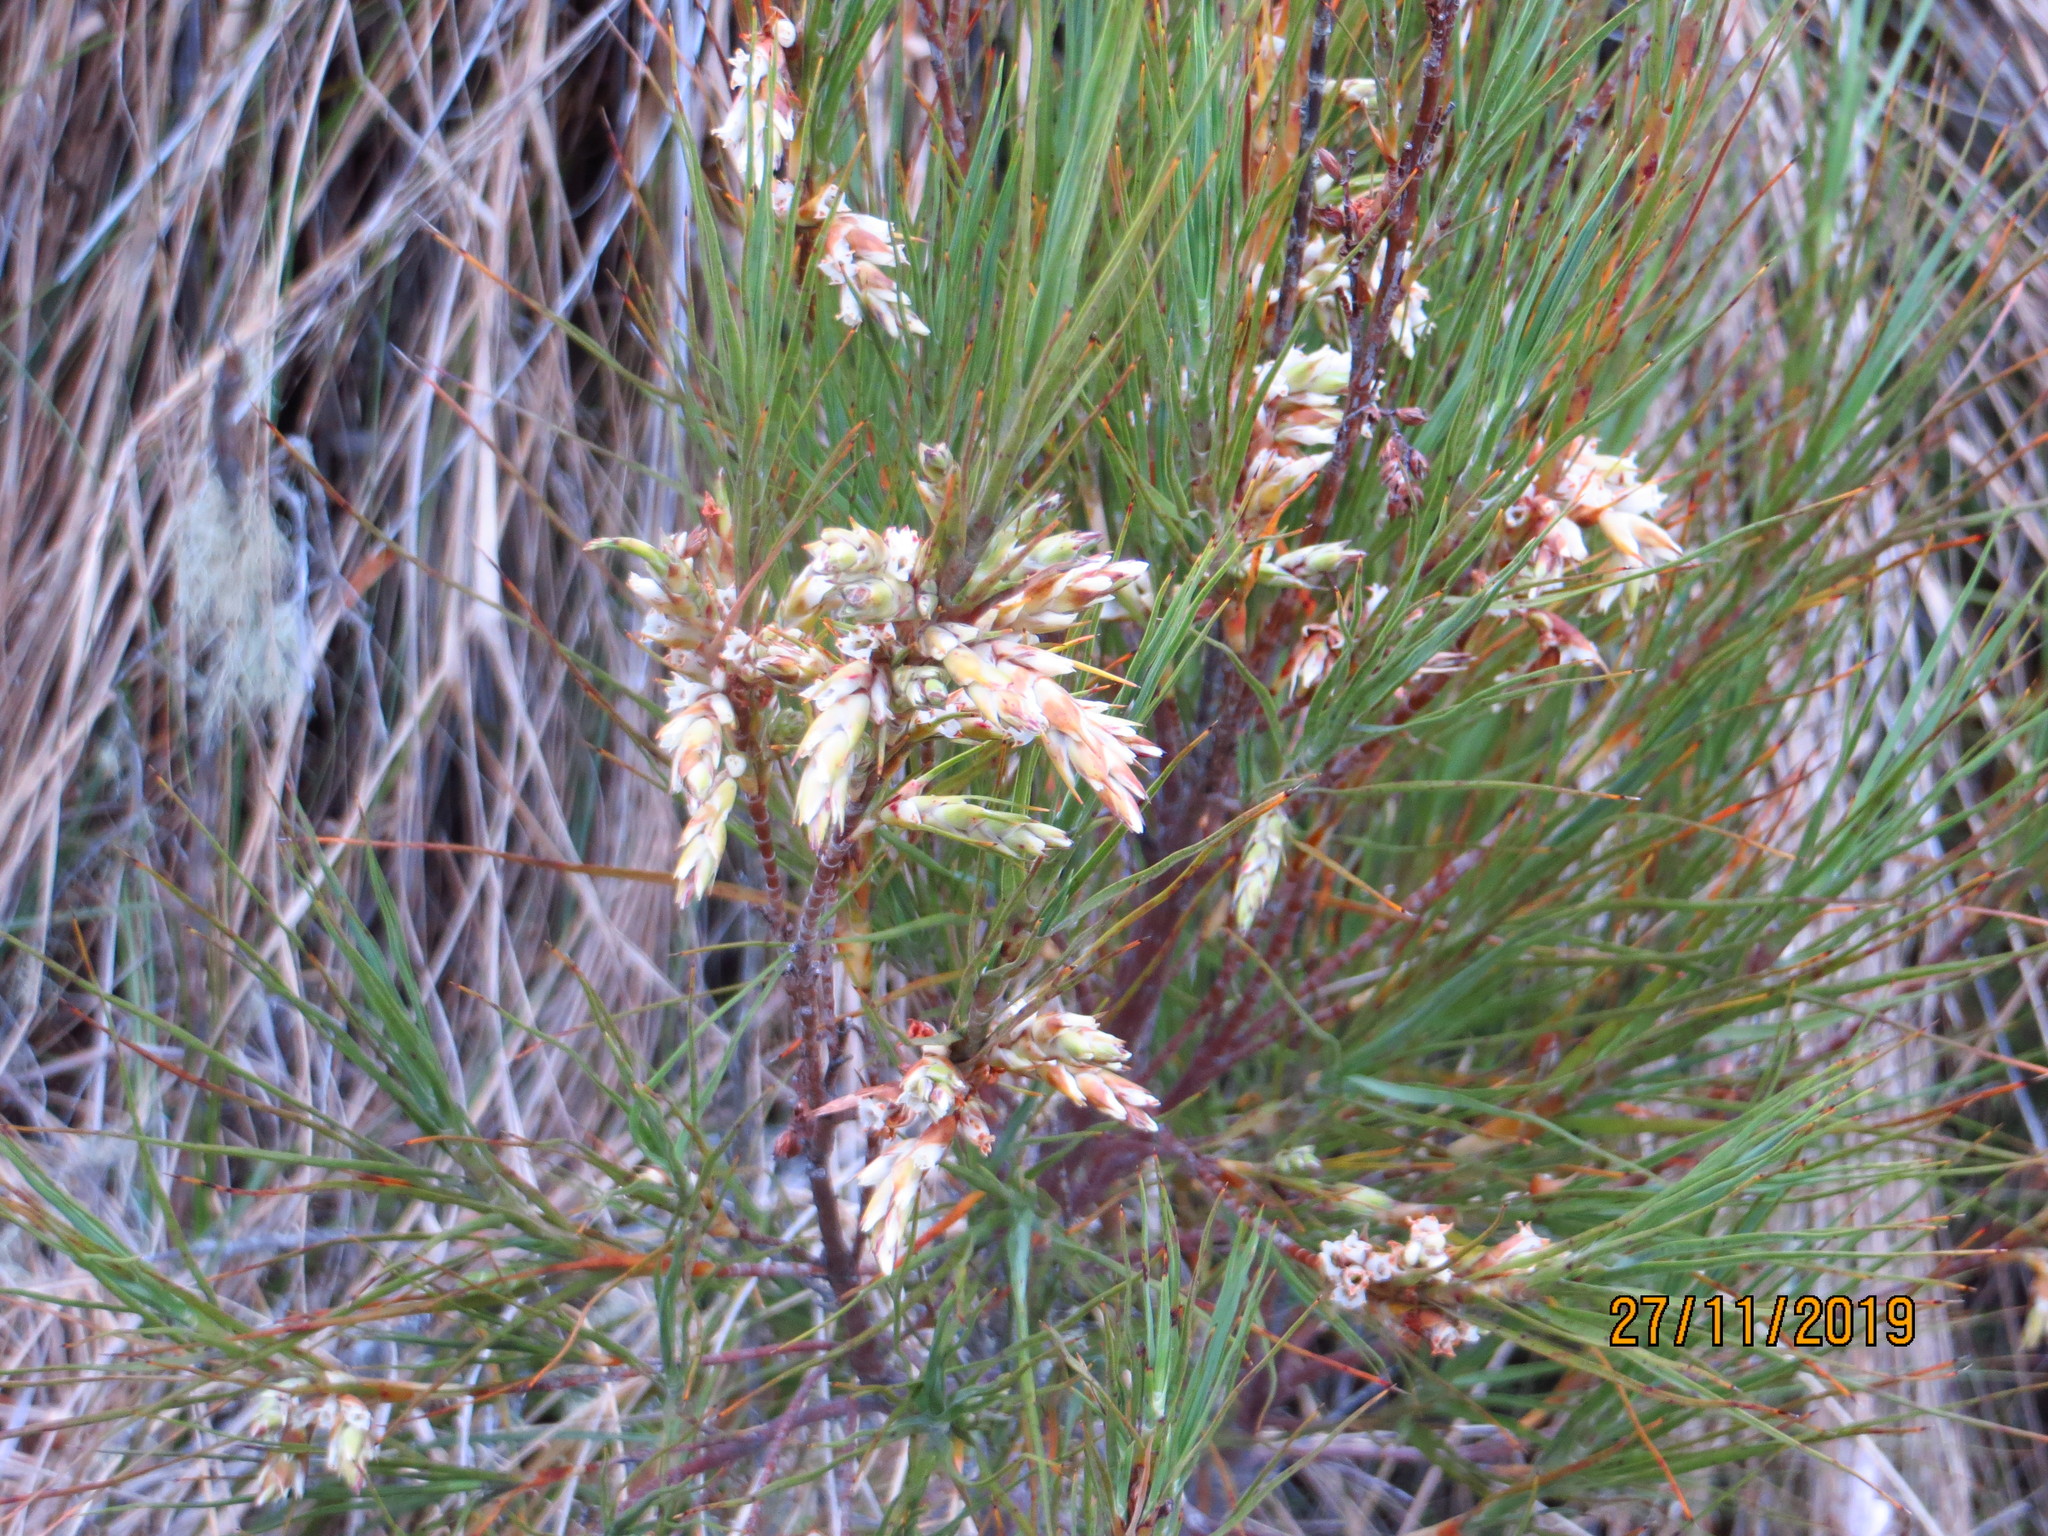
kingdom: Plantae
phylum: Tracheophyta
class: Magnoliopsida
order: Ericales
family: Ericaceae
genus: Dracophyllum
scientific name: Dracophyllum longifolium
